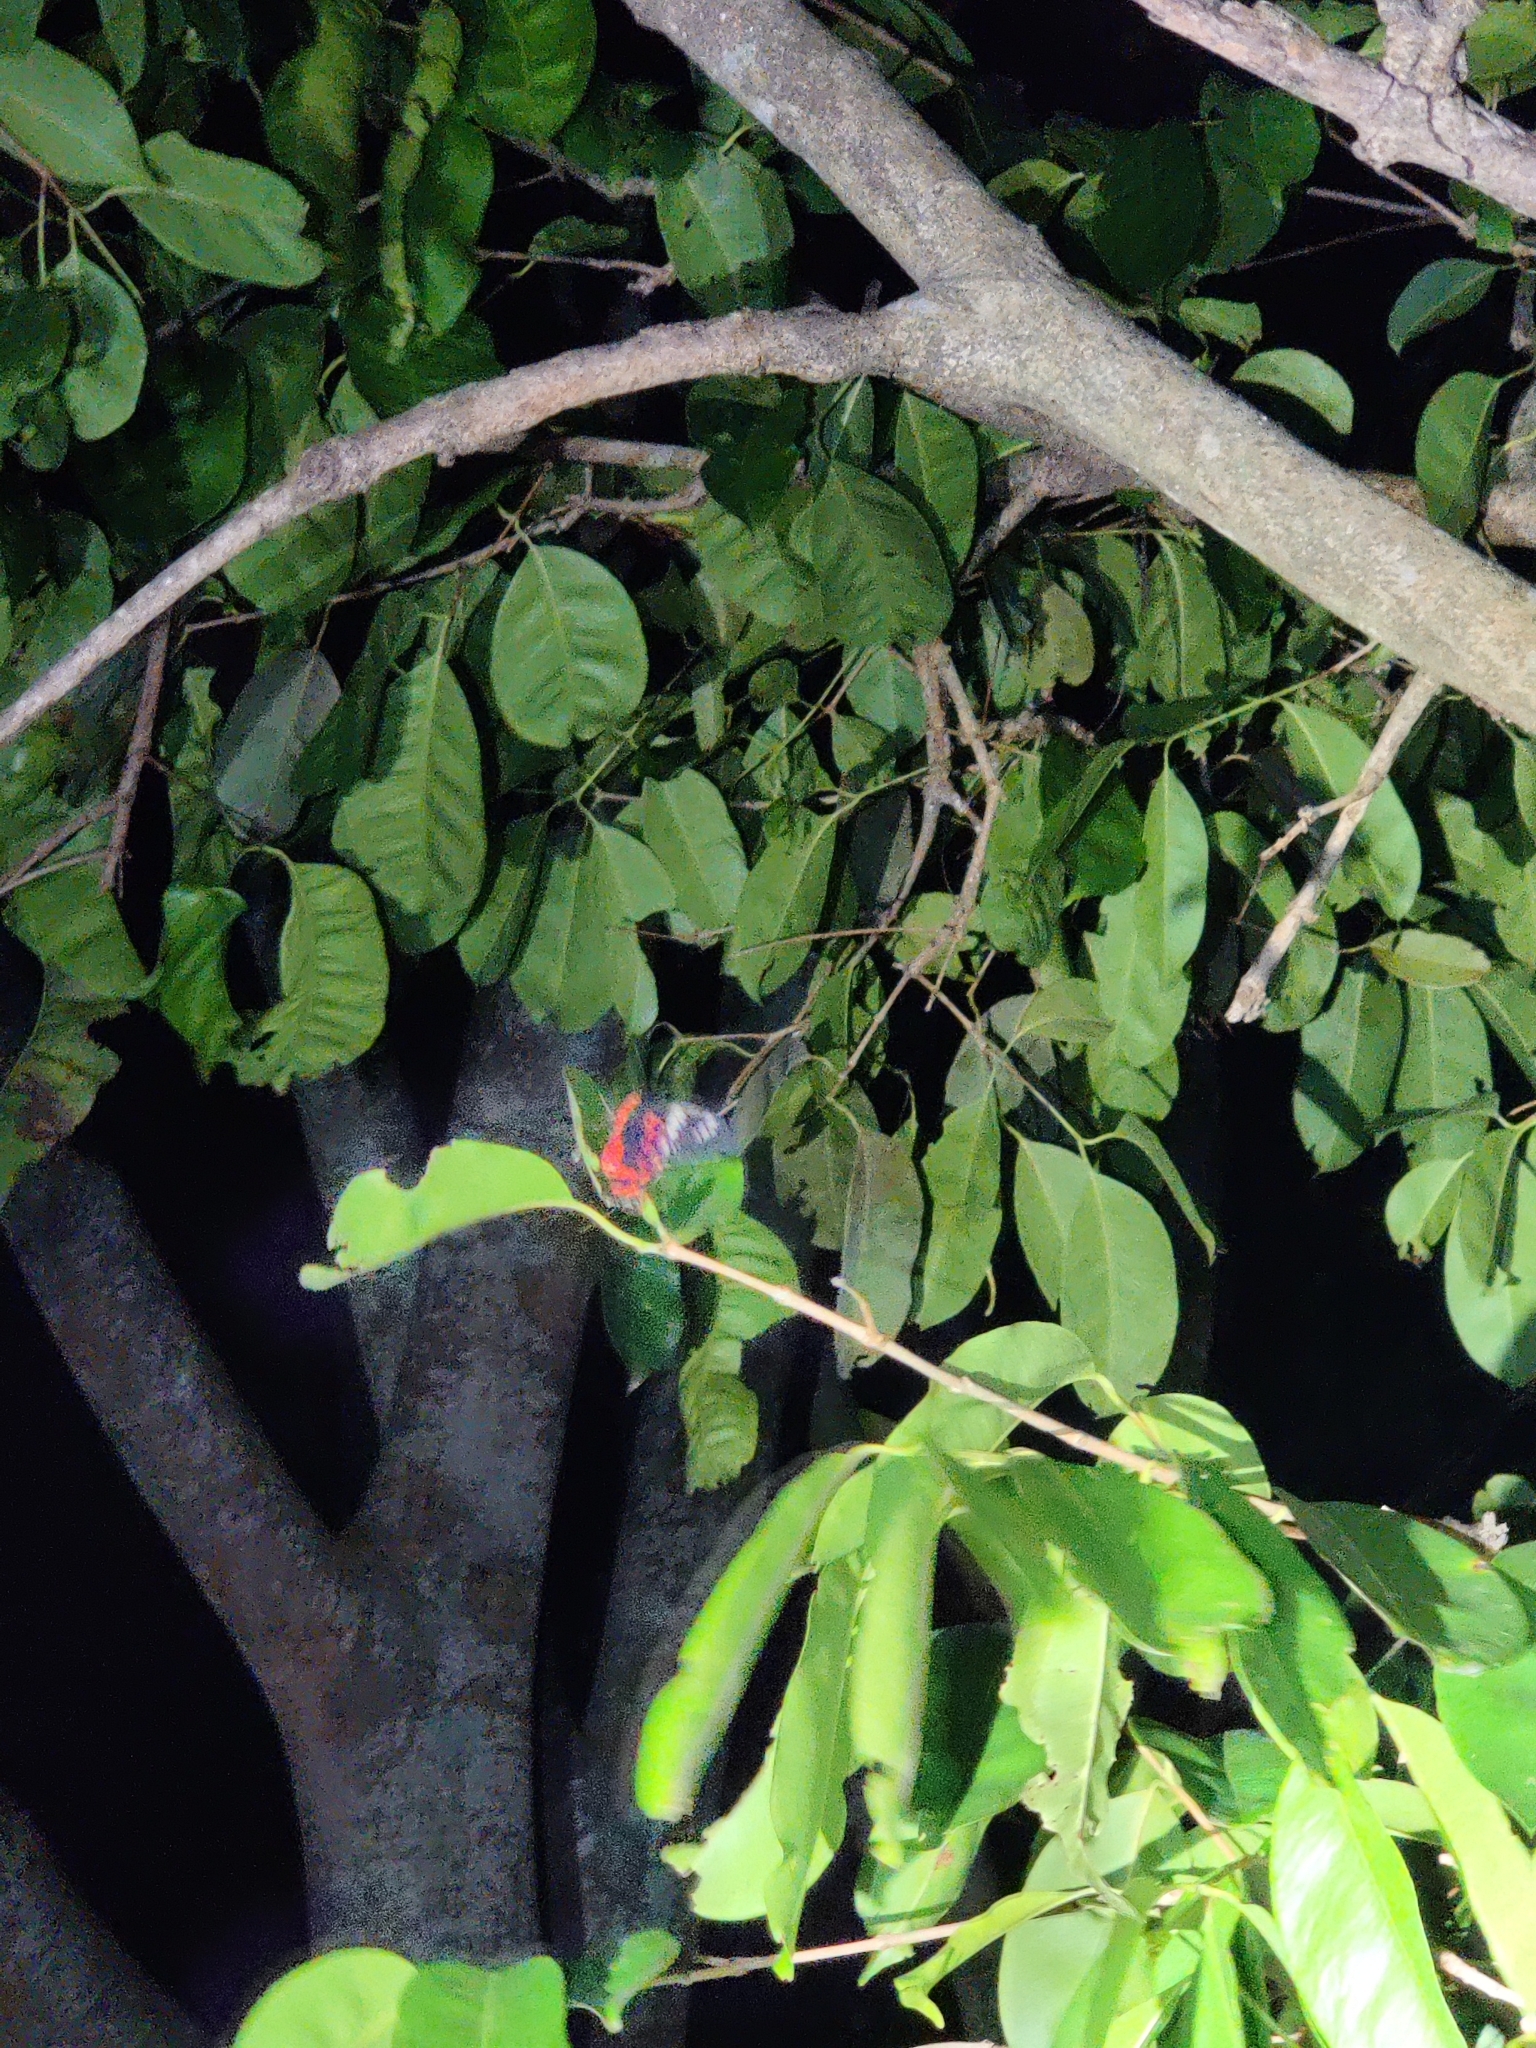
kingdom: Animalia
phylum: Arthropoda
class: Insecta
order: Lepidoptera
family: Papilionidae
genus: Pachliopta
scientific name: Pachliopta hector
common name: Crimson rose
